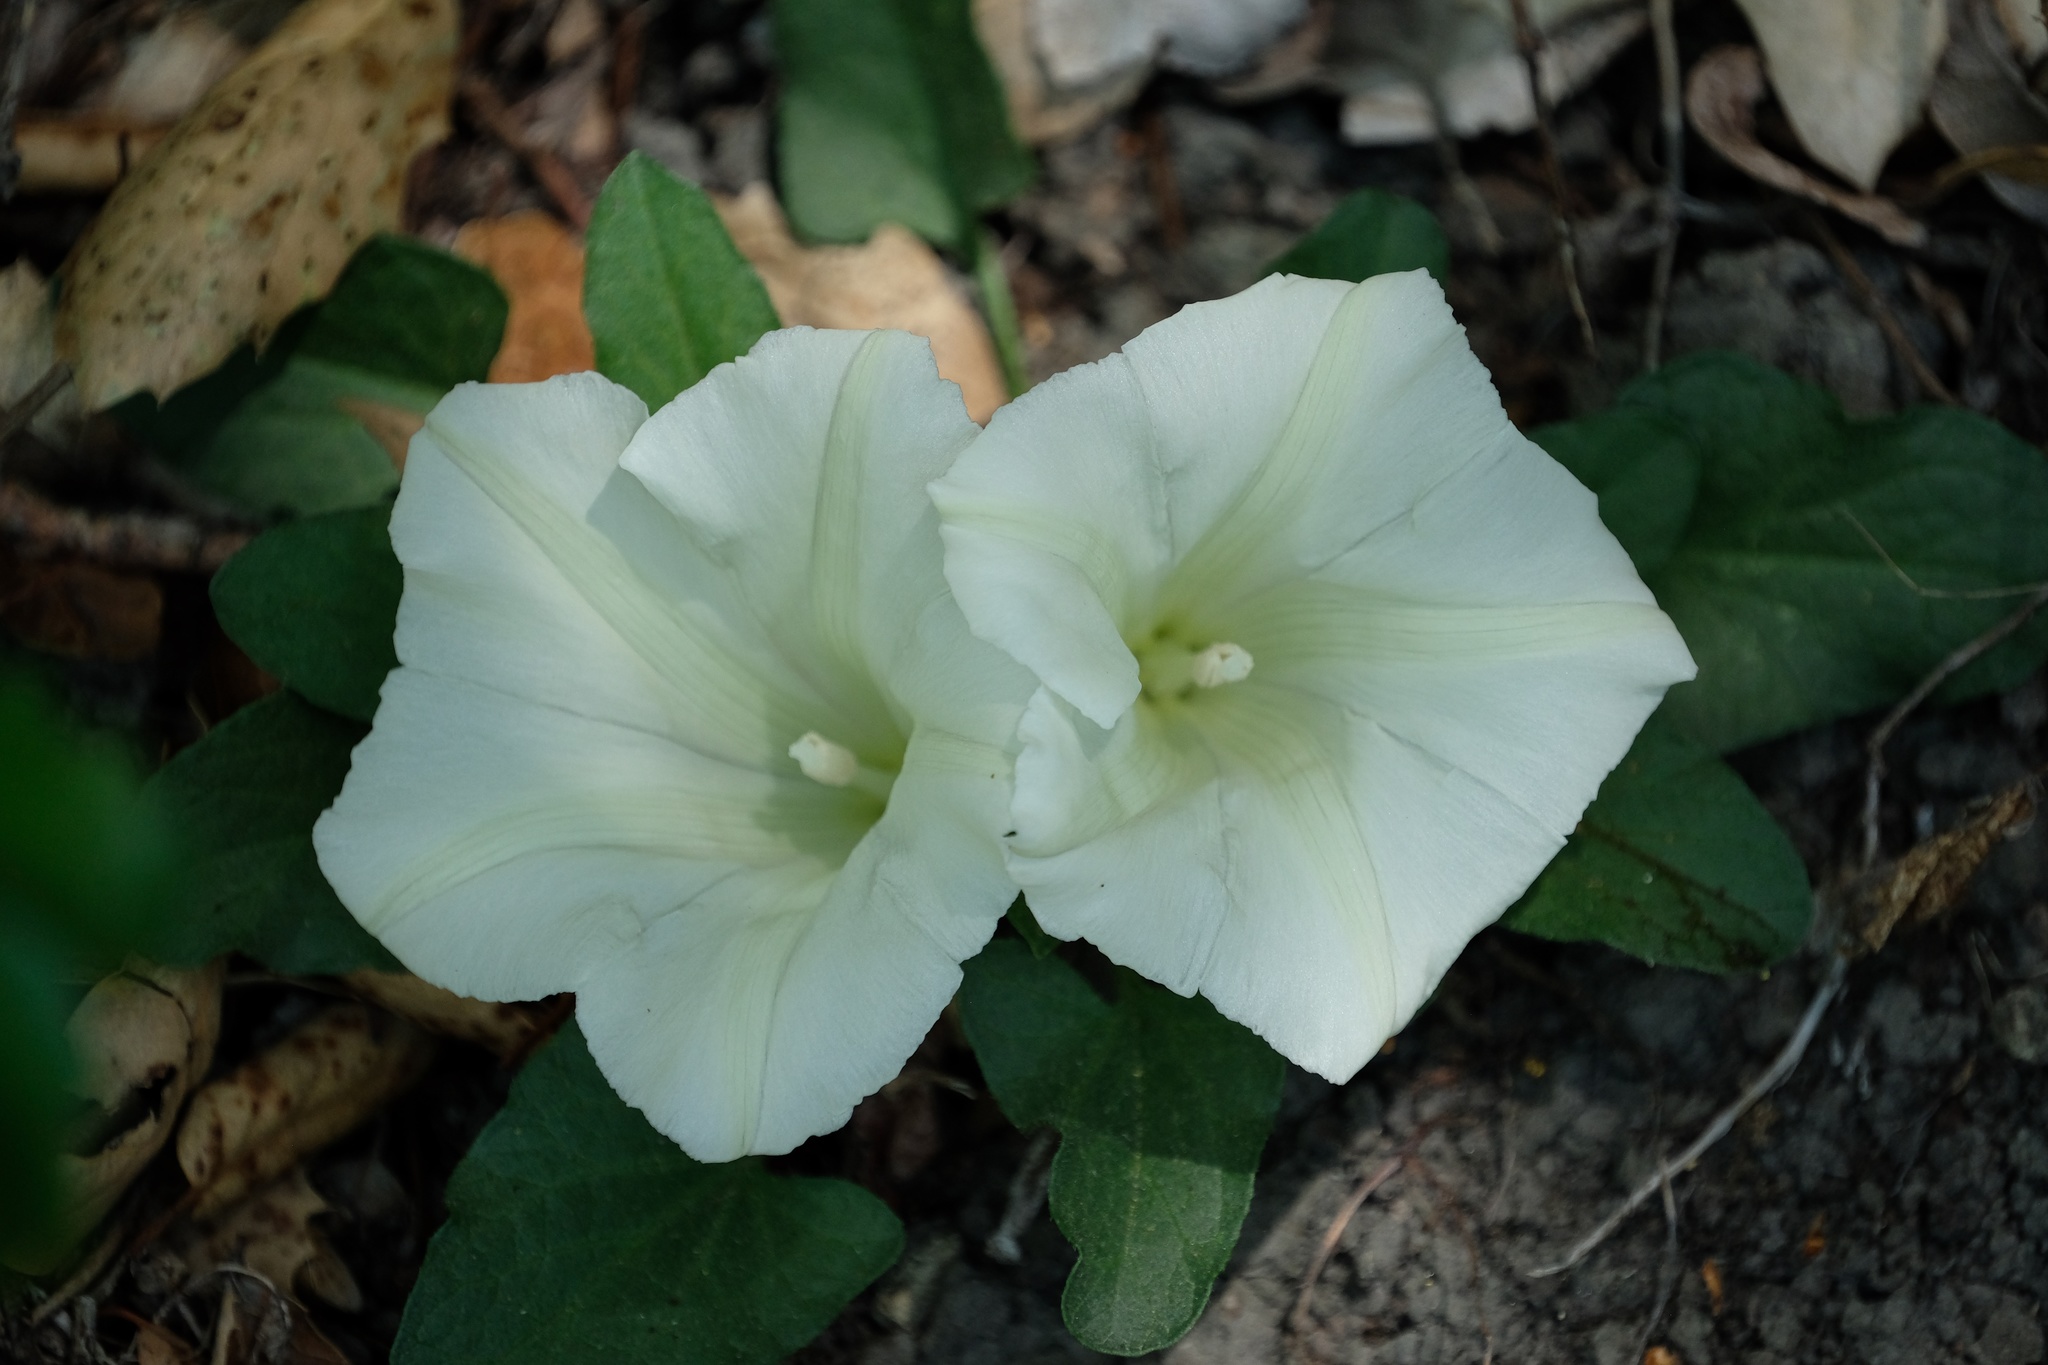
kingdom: Plantae
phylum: Tracheophyta
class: Magnoliopsida
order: Solanales
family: Convolvulaceae
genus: Calystegia
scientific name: Calystegia subacaulis
